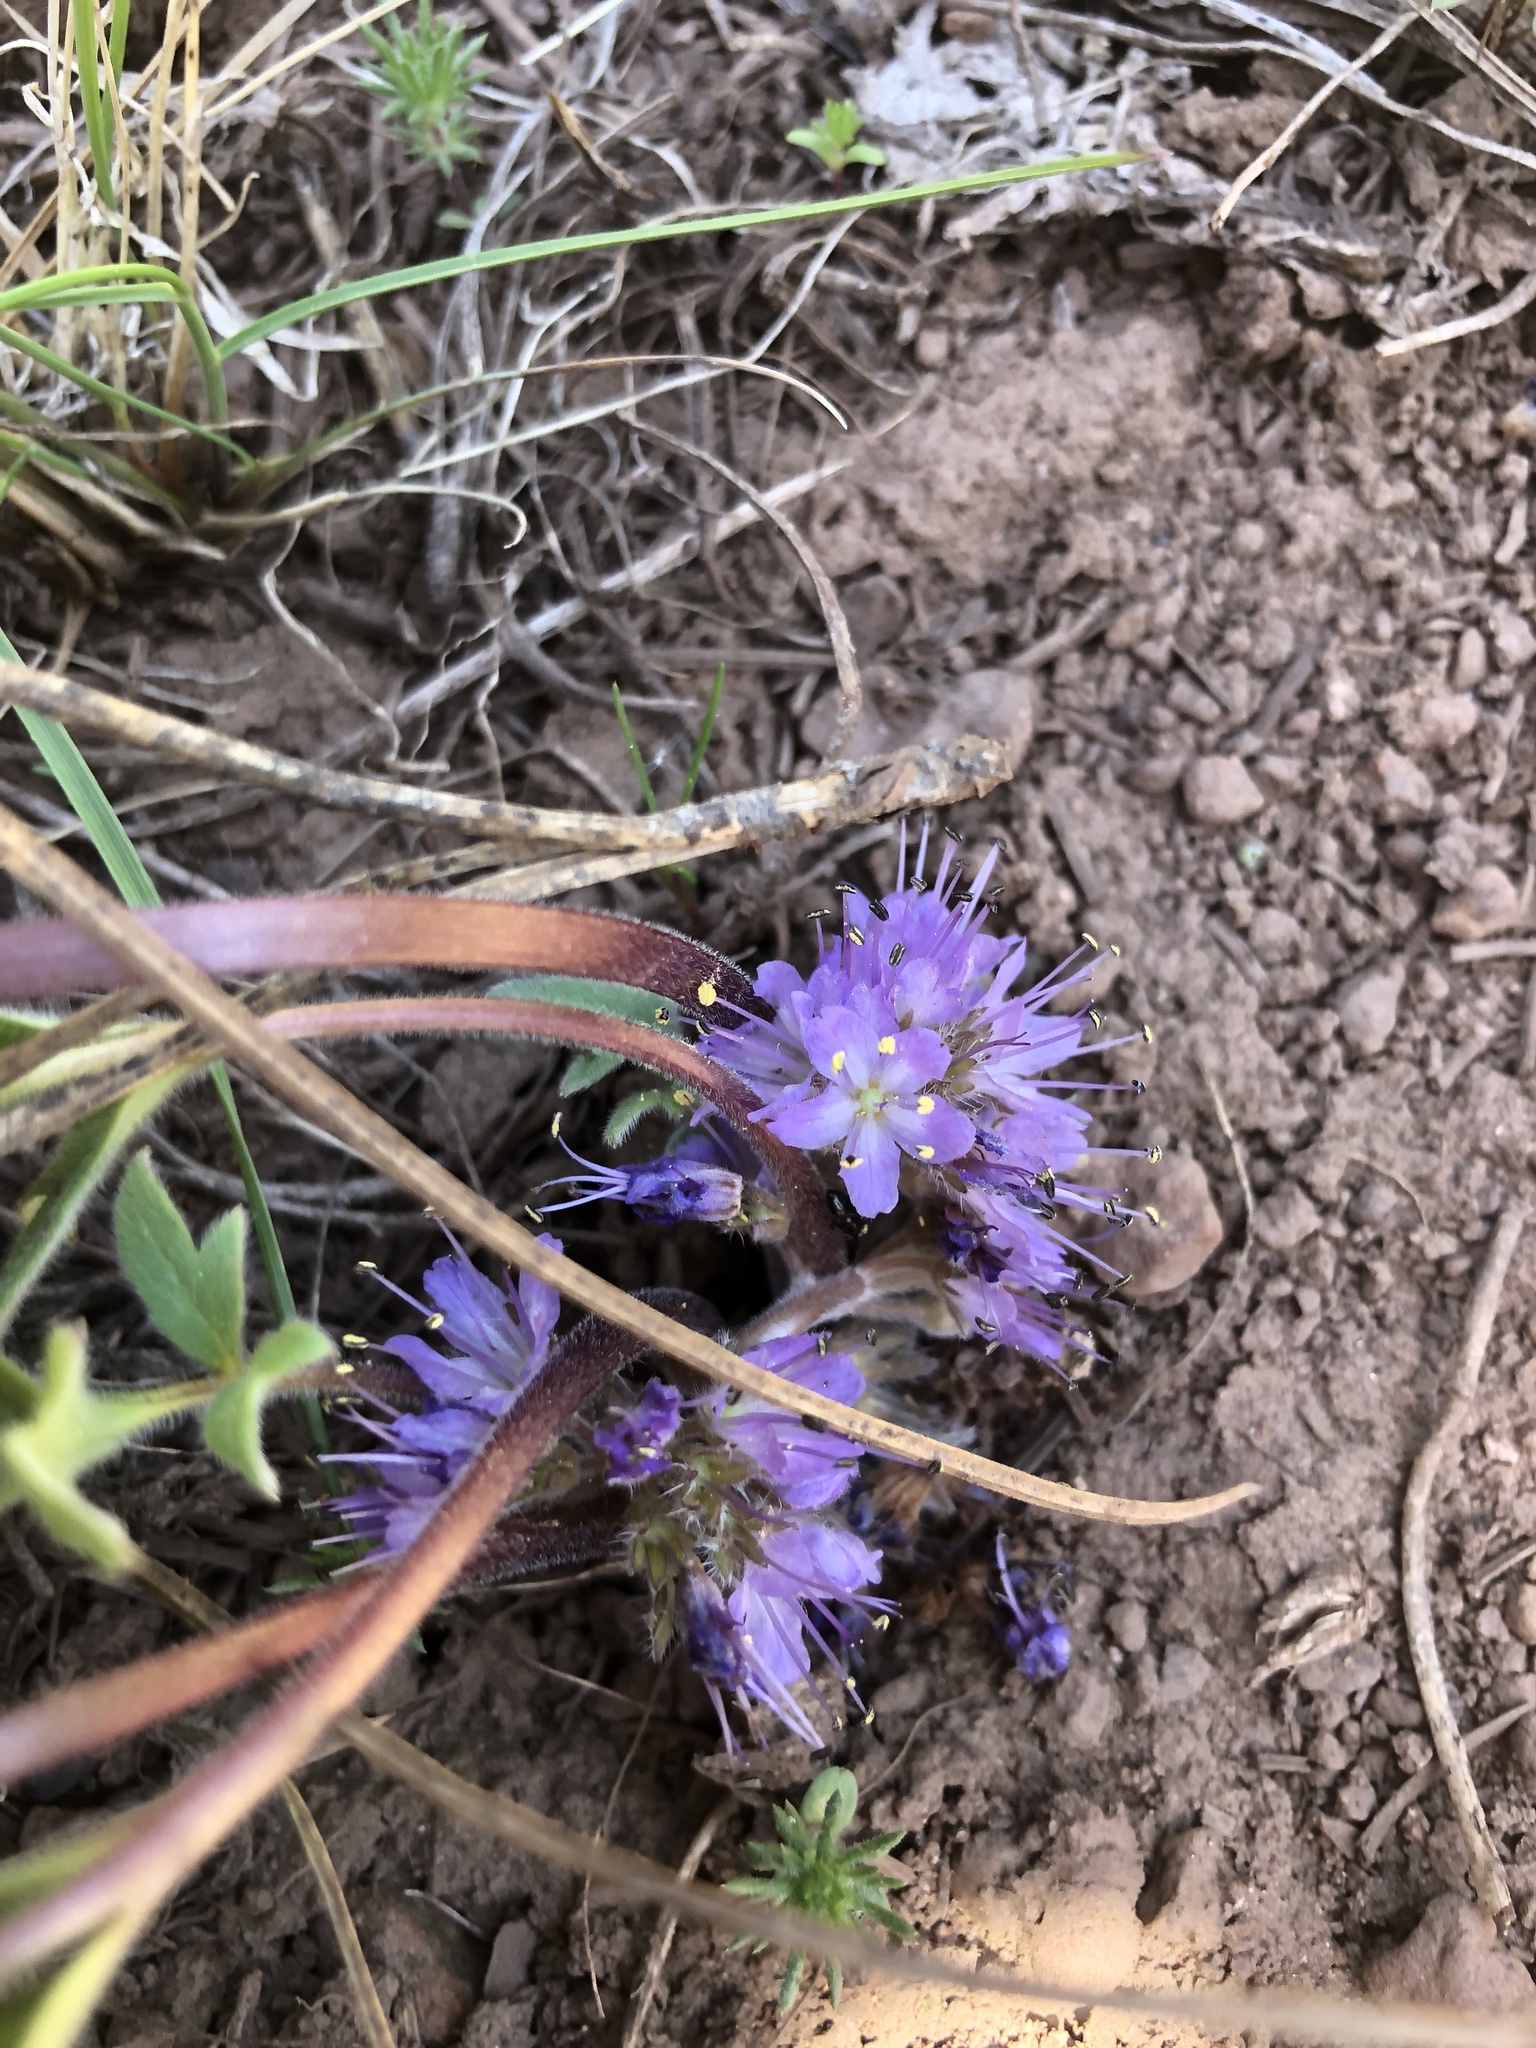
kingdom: Plantae
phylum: Tracheophyta
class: Magnoliopsida
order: Boraginales
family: Hydrophyllaceae
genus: Hydrophyllum
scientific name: Hydrophyllum alpestre
